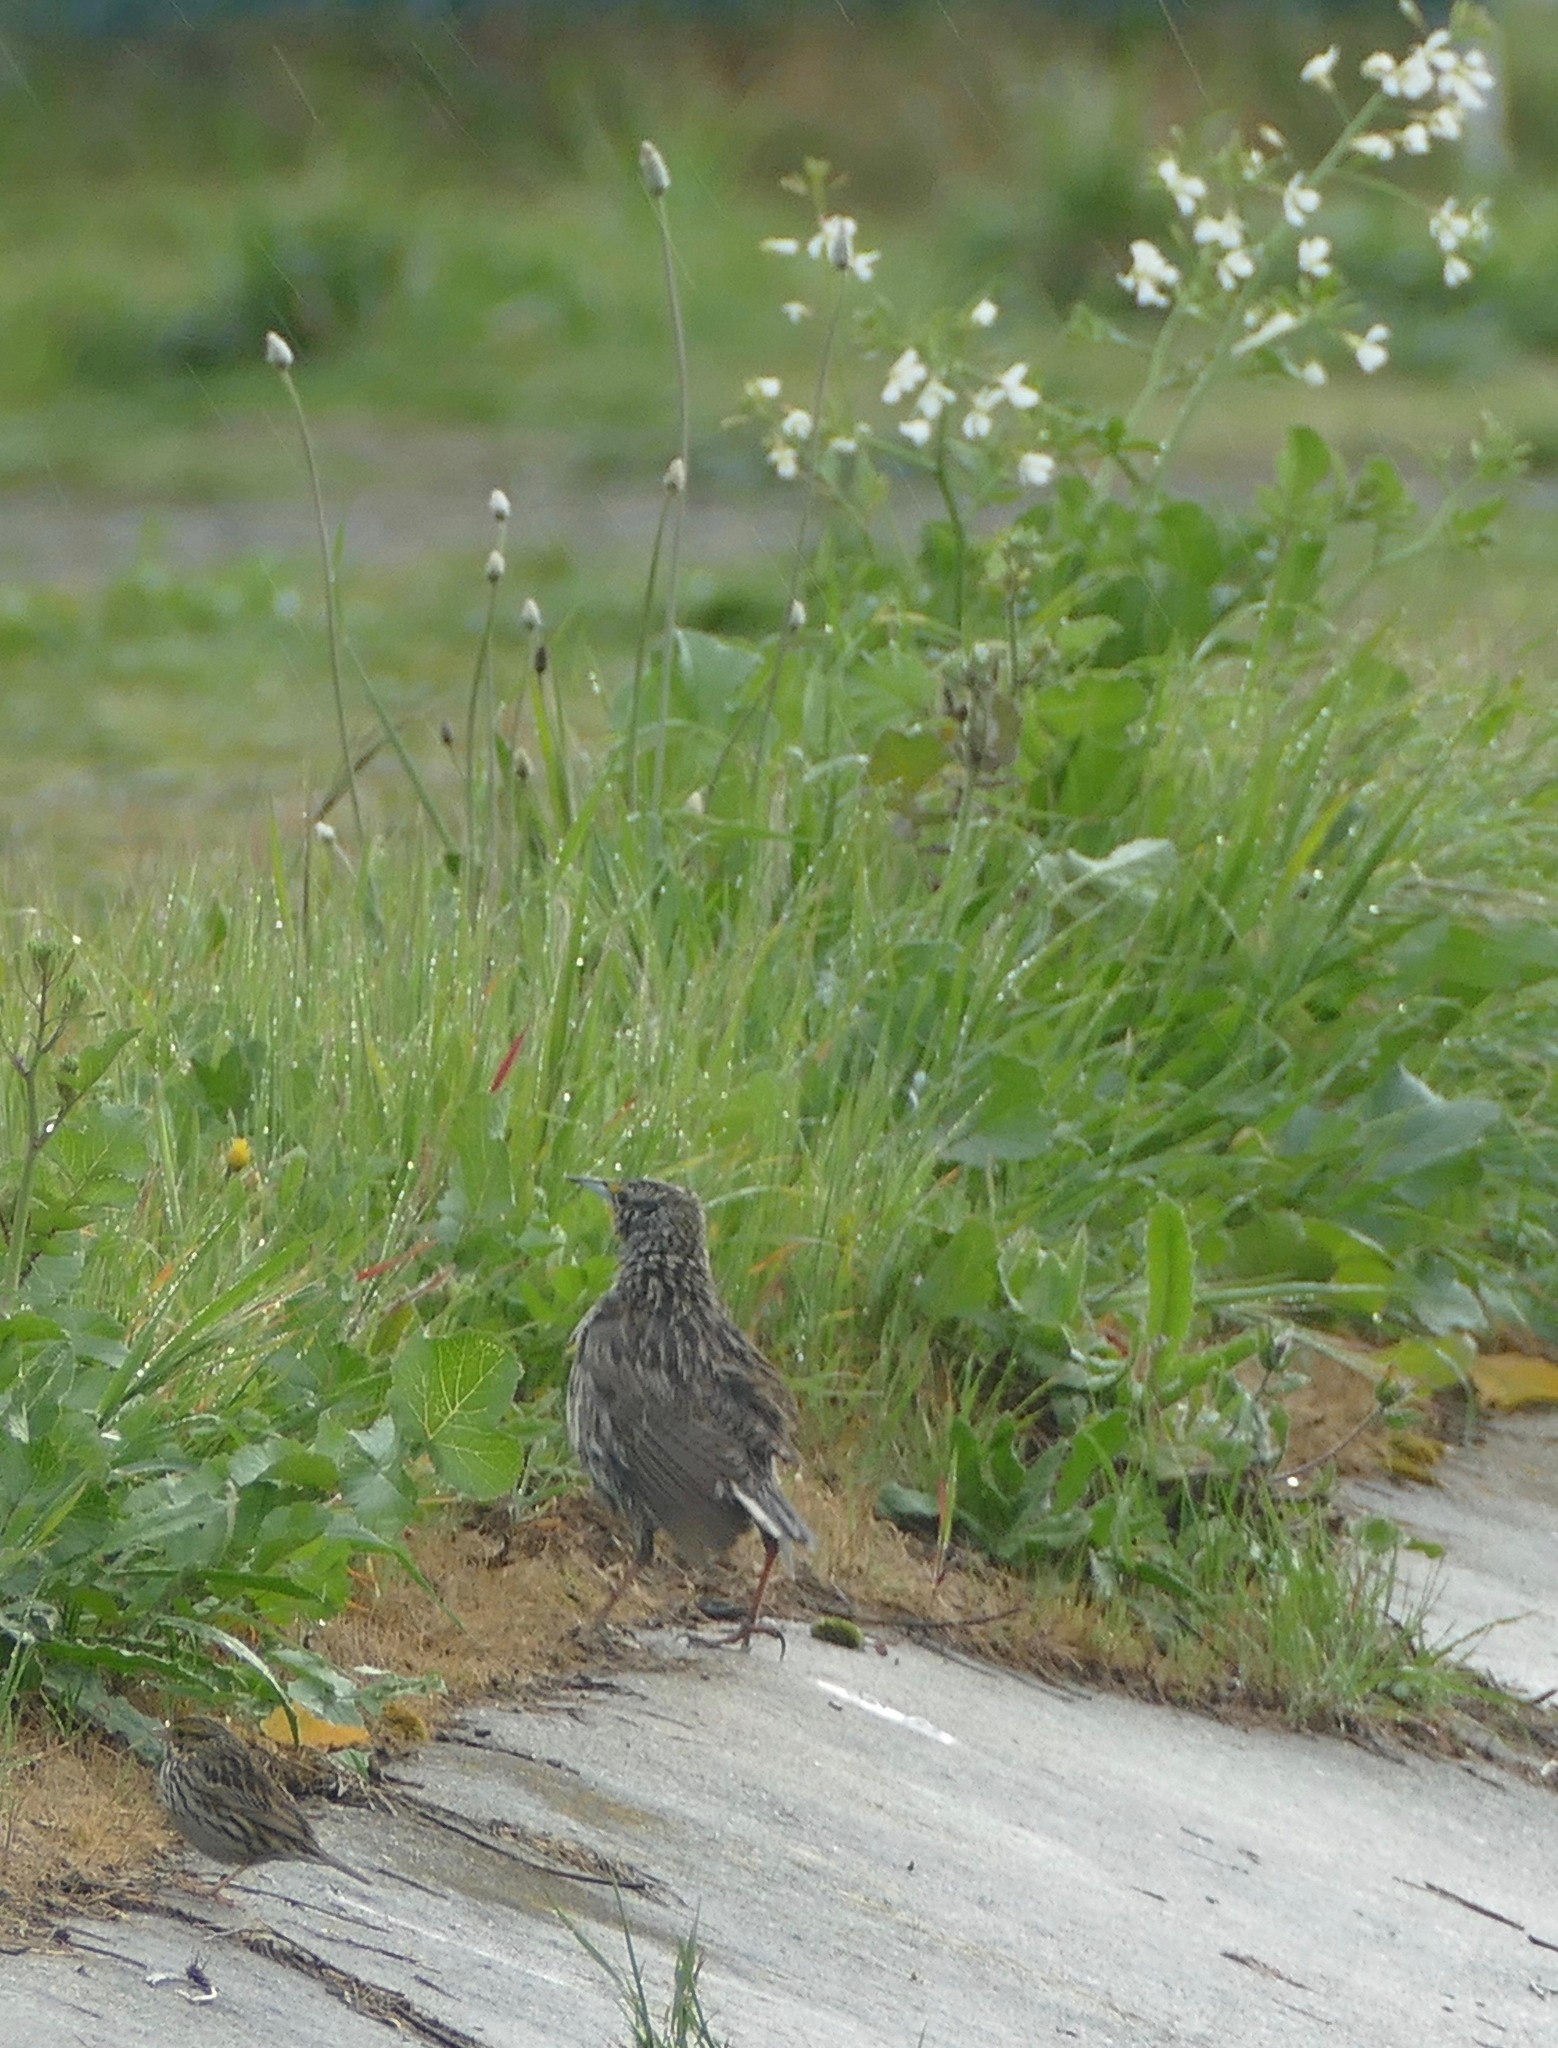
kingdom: Animalia
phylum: Chordata
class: Aves
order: Passeriformes
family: Icteridae
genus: Sturnella
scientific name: Sturnella neglecta
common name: Western meadowlark
